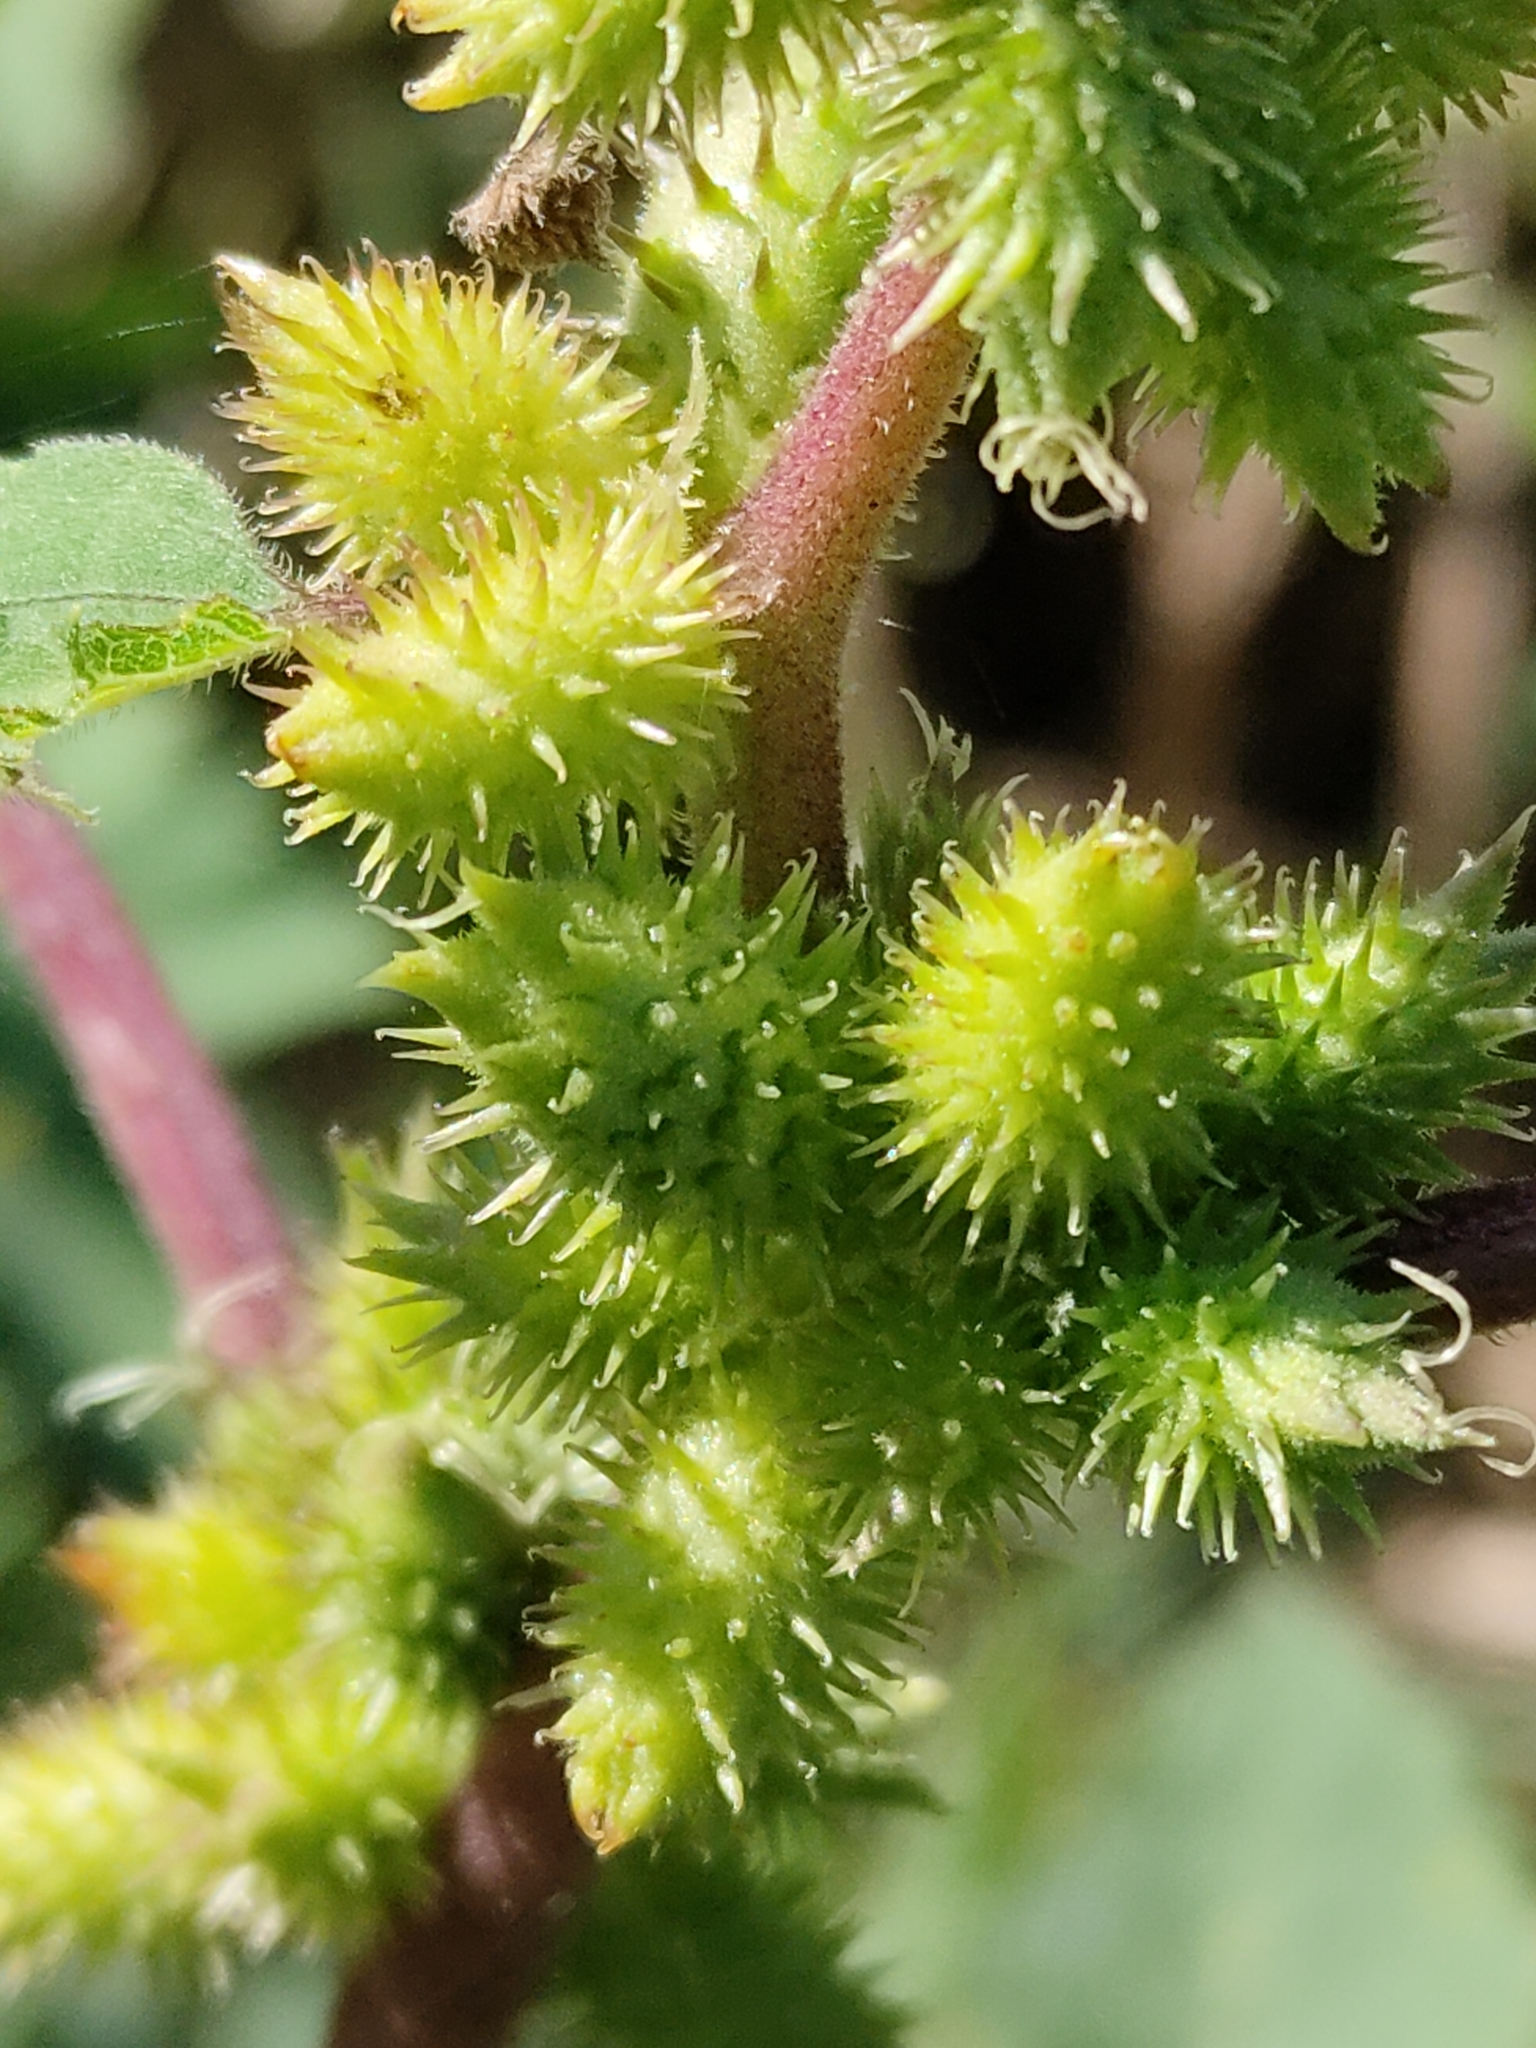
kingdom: Plantae
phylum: Tracheophyta
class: Magnoliopsida
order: Asterales
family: Asteraceae
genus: Xanthium
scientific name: Xanthium strumarium
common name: Rough cocklebur
